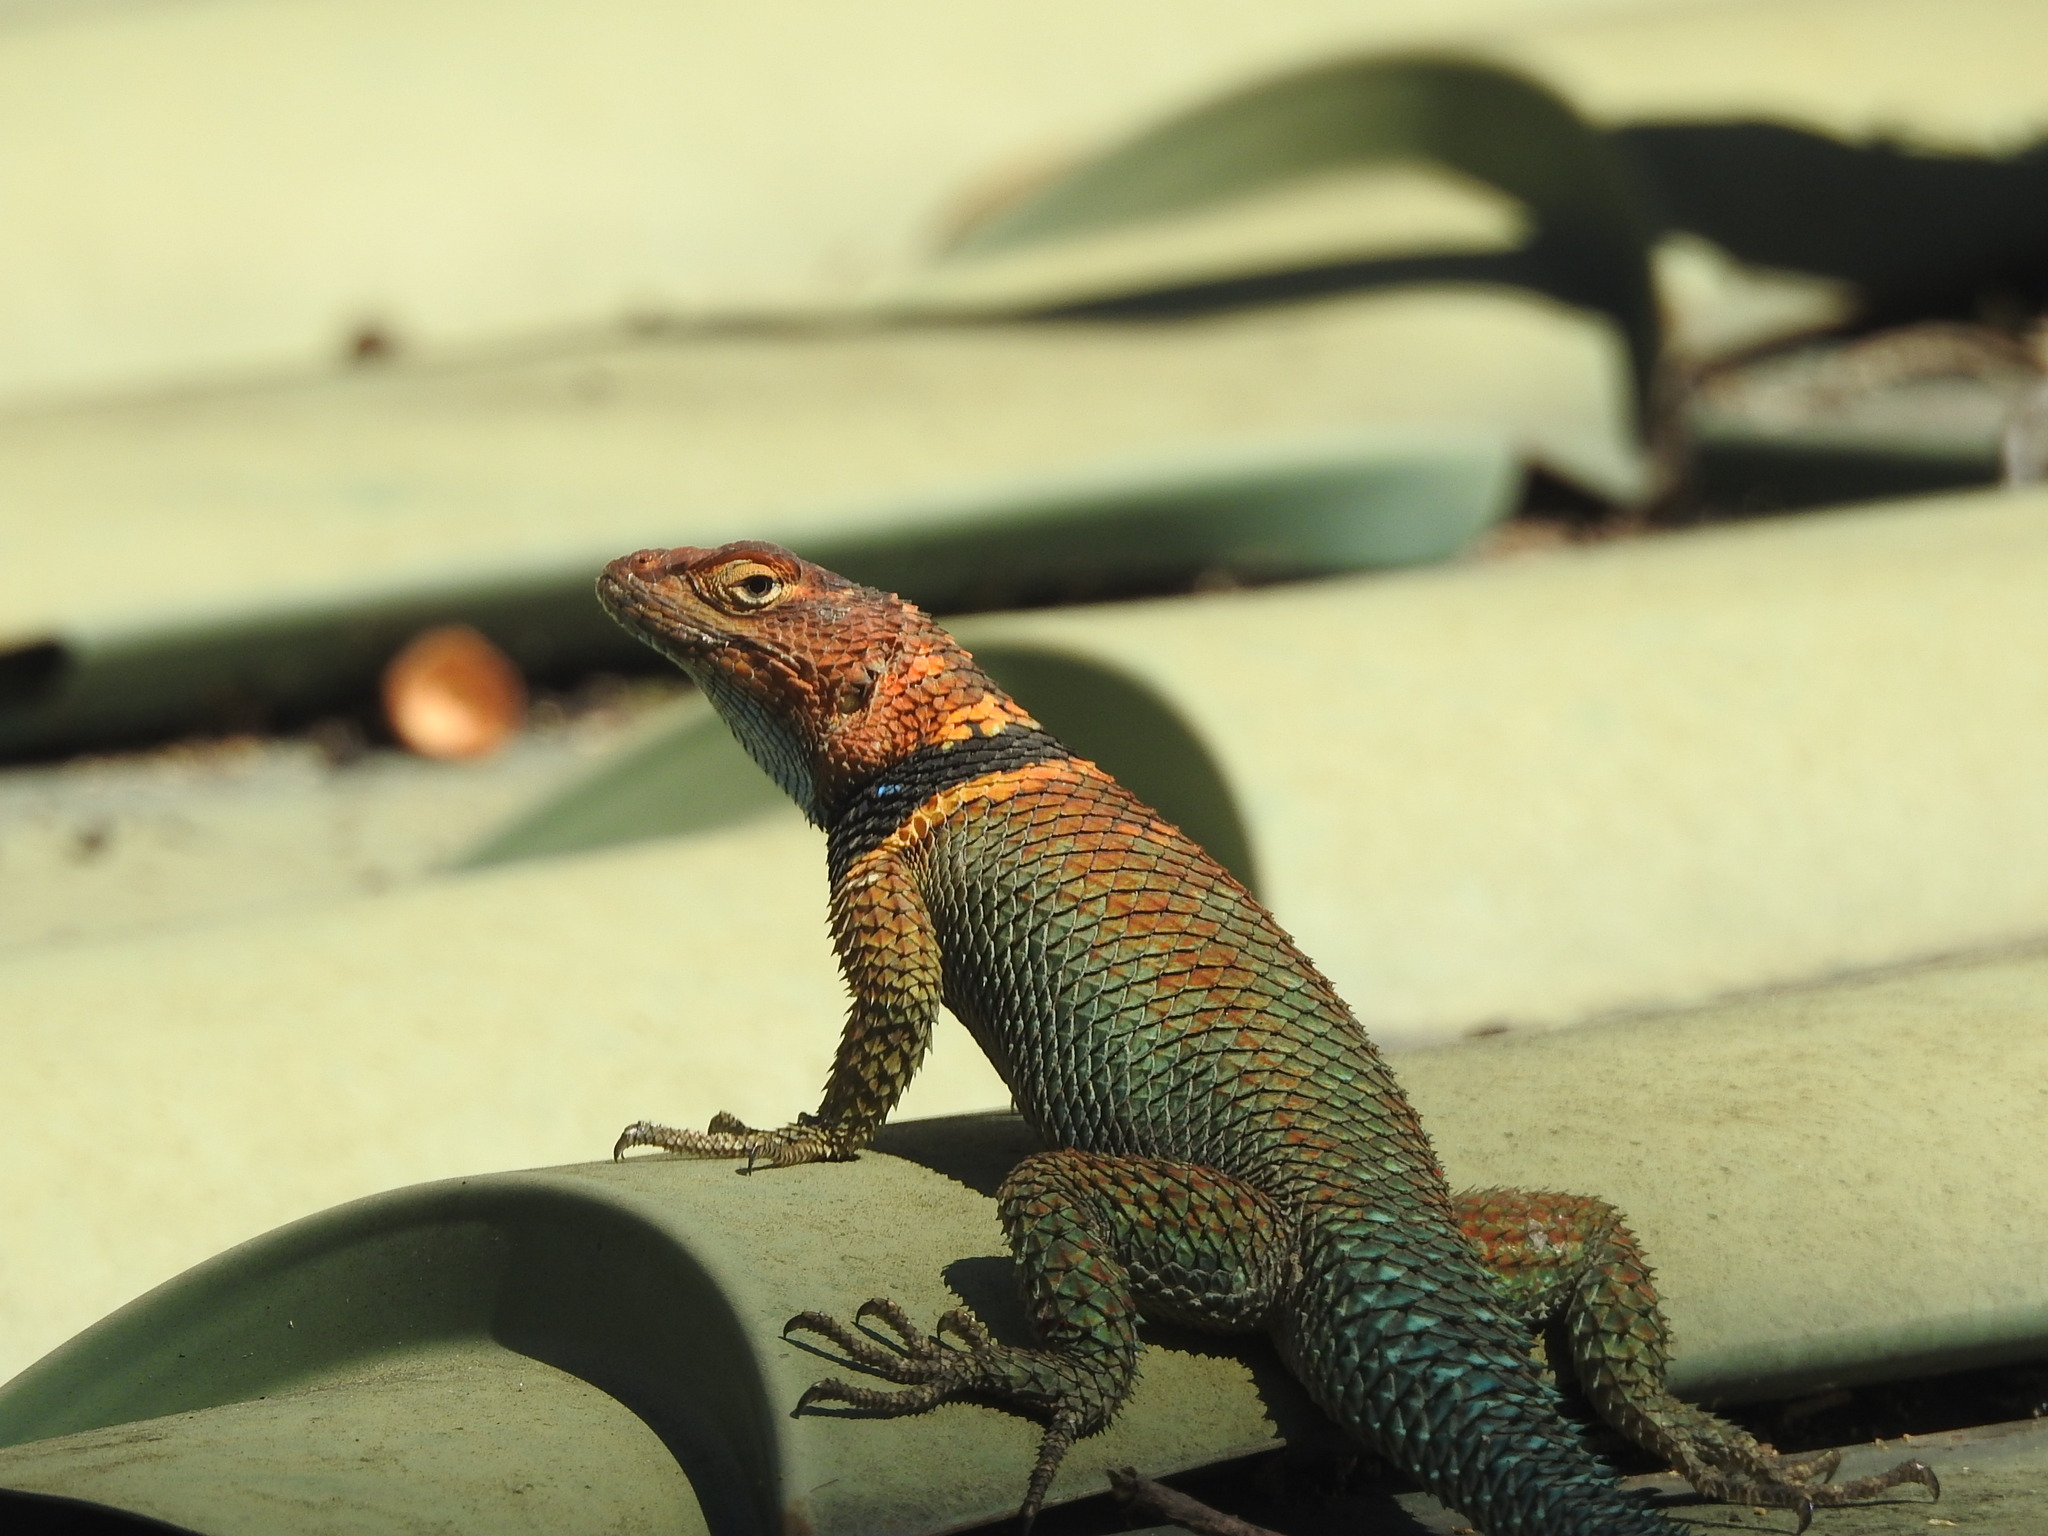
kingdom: Animalia
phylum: Chordata
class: Squamata
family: Phrynosomatidae
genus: Sceloporus
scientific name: Sceloporus cyanogenys
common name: Blue spiny lizard
